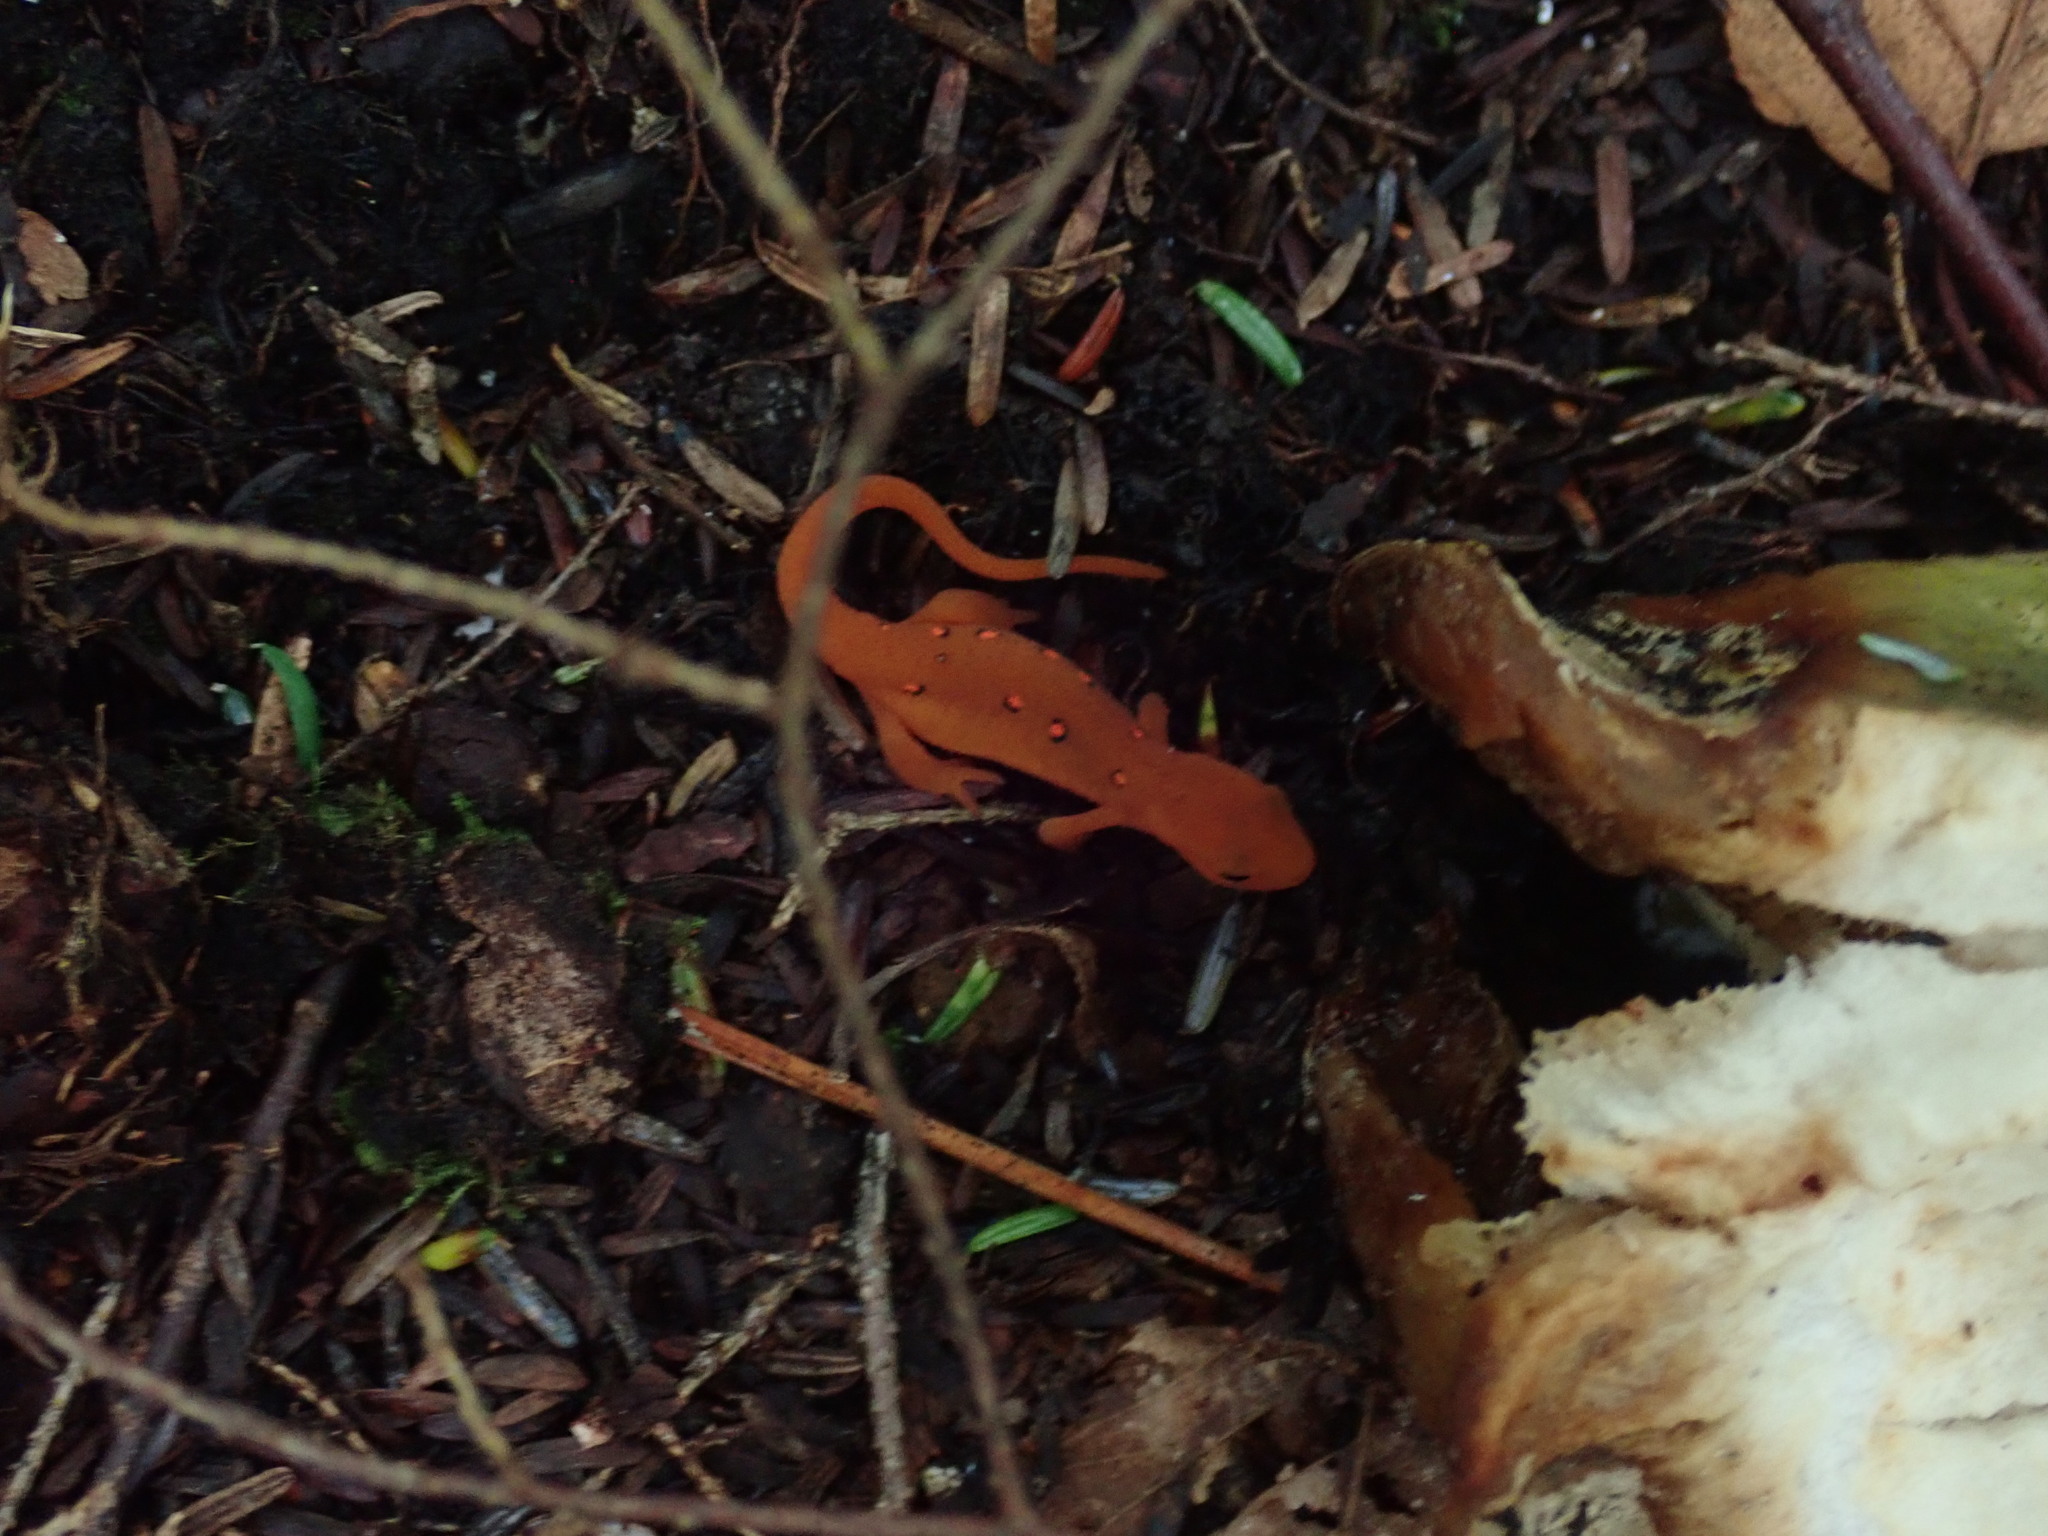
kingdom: Animalia
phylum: Chordata
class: Amphibia
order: Caudata
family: Salamandridae
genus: Notophthalmus
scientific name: Notophthalmus viridescens
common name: Eastern newt
